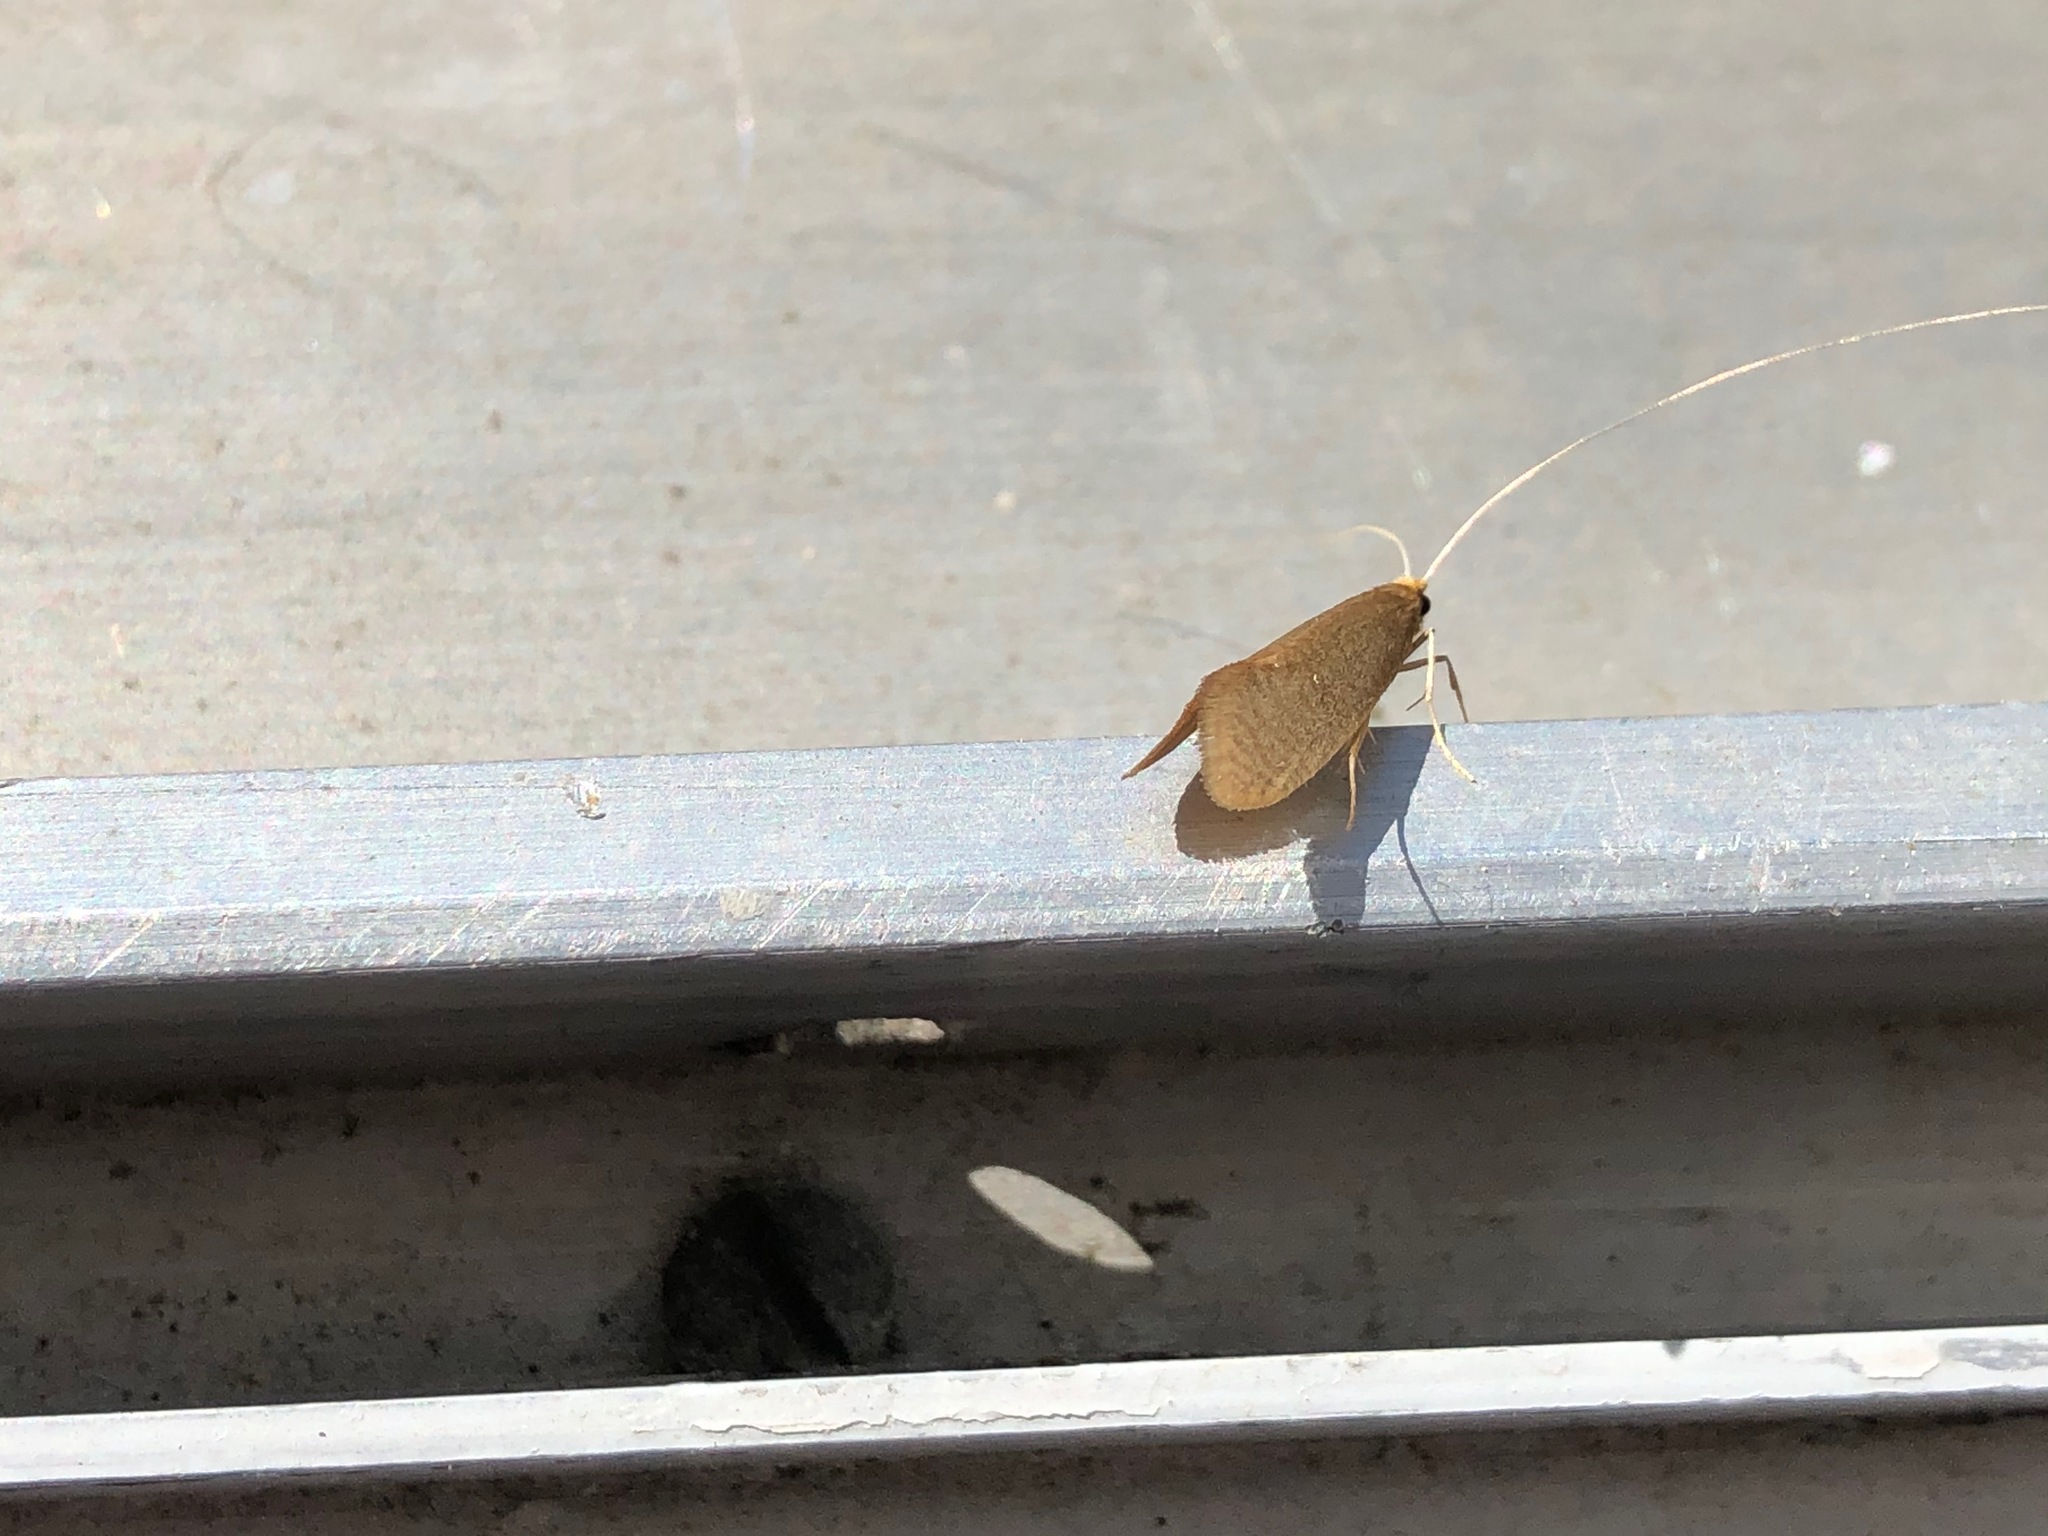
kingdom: Animalia
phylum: Arthropoda
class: Insecta
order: Lepidoptera
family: Adelidae
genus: Nematopogon
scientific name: Nematopogon swammerdamella
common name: Large long-horn
